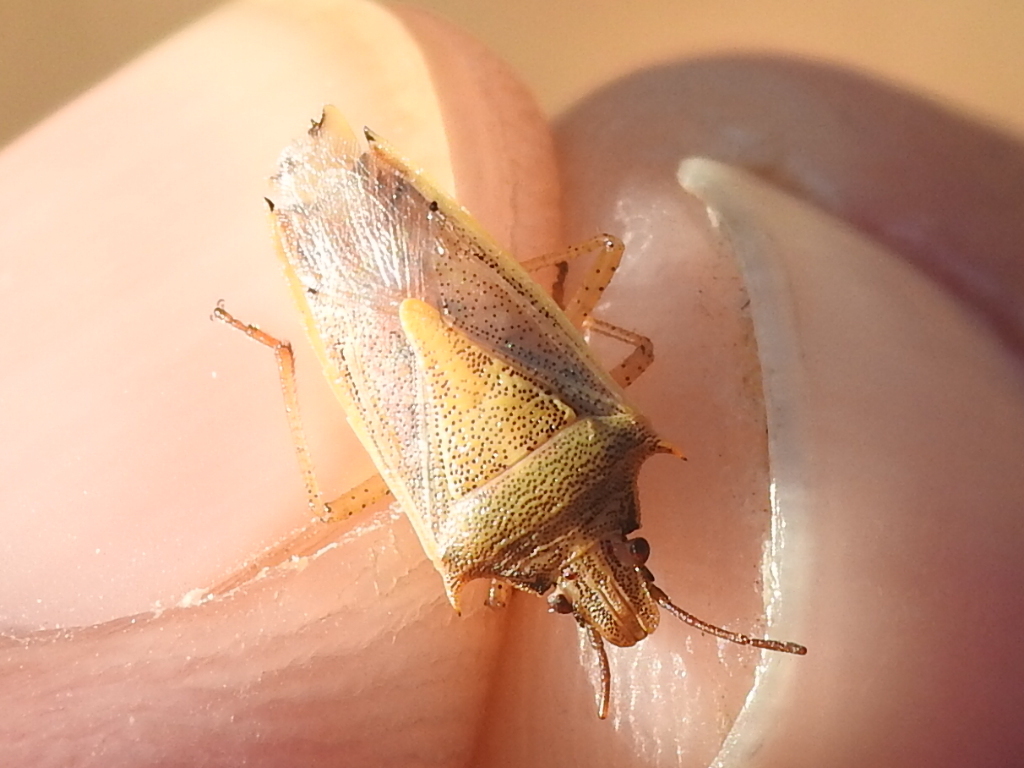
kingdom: Animalia
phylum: Arthropoda
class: Insecta
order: Hemiptera
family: Pentatomidae
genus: Oebalus
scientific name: Oebalus pugnax
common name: Rice stink bug
